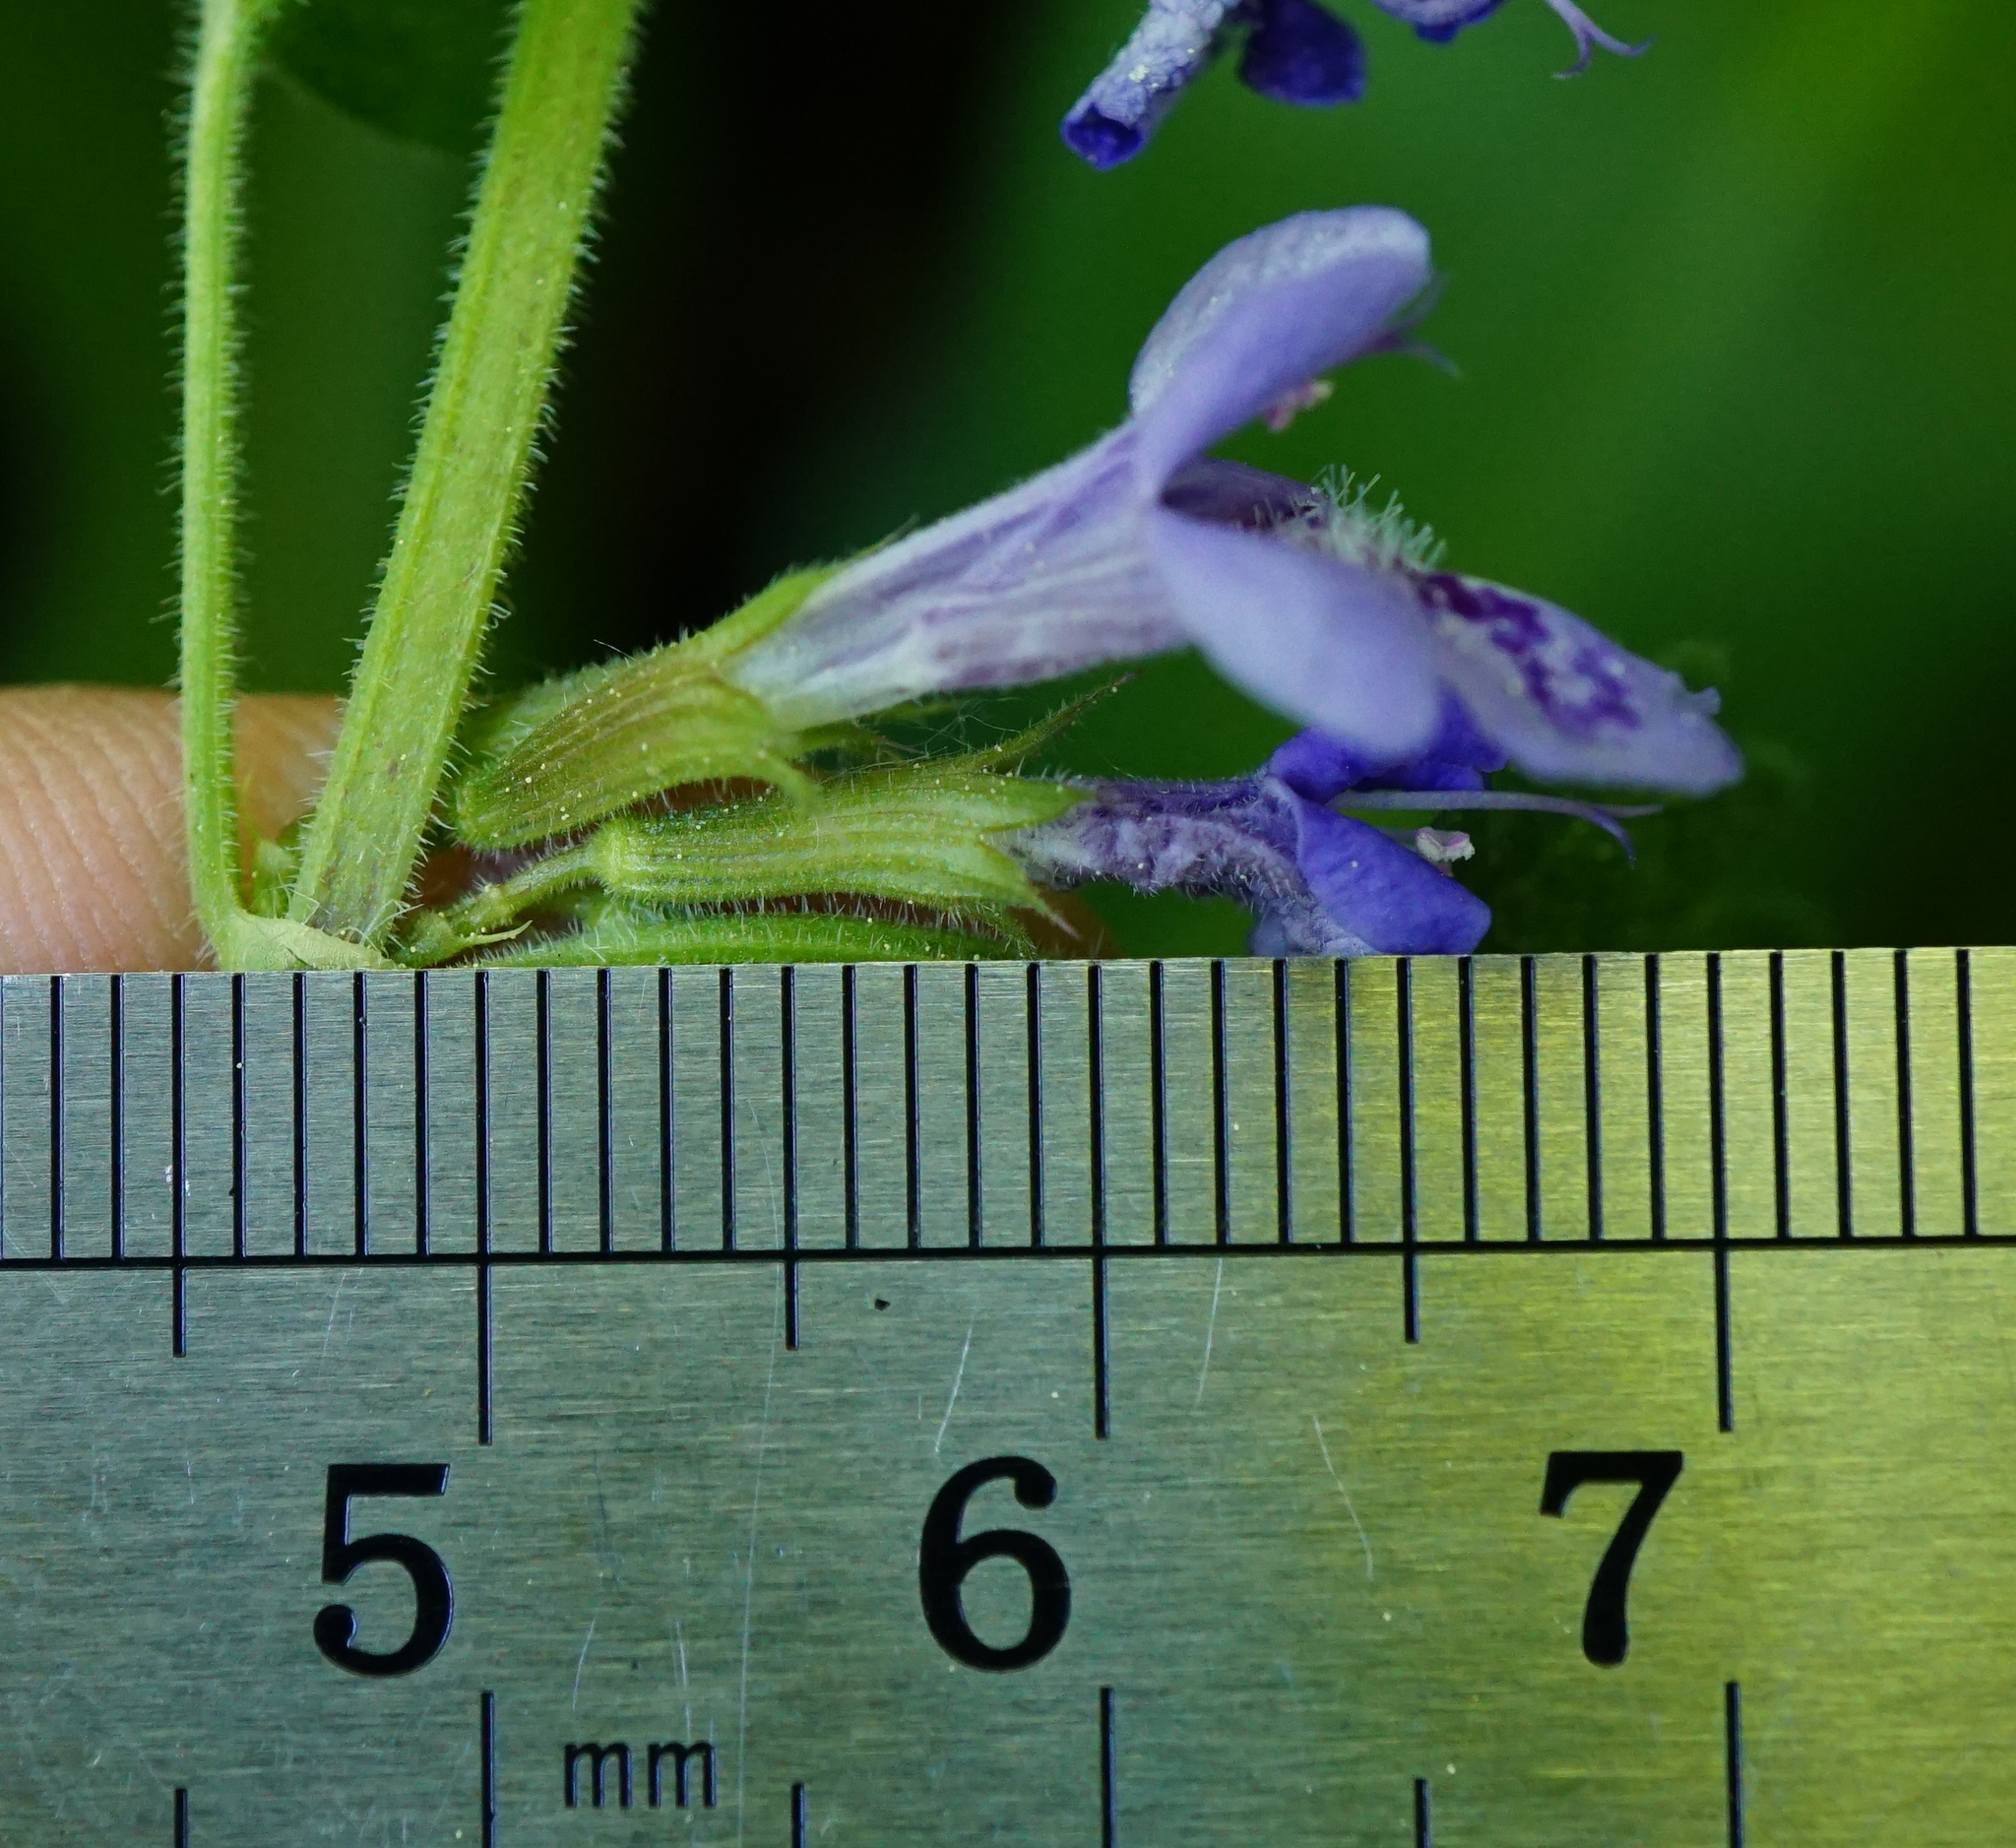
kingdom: Plantae
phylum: Tracheophyta
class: Magnoliopsida
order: Lamiales
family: Lamiaceae
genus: Glechoma
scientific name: Glechoma hirsuta
